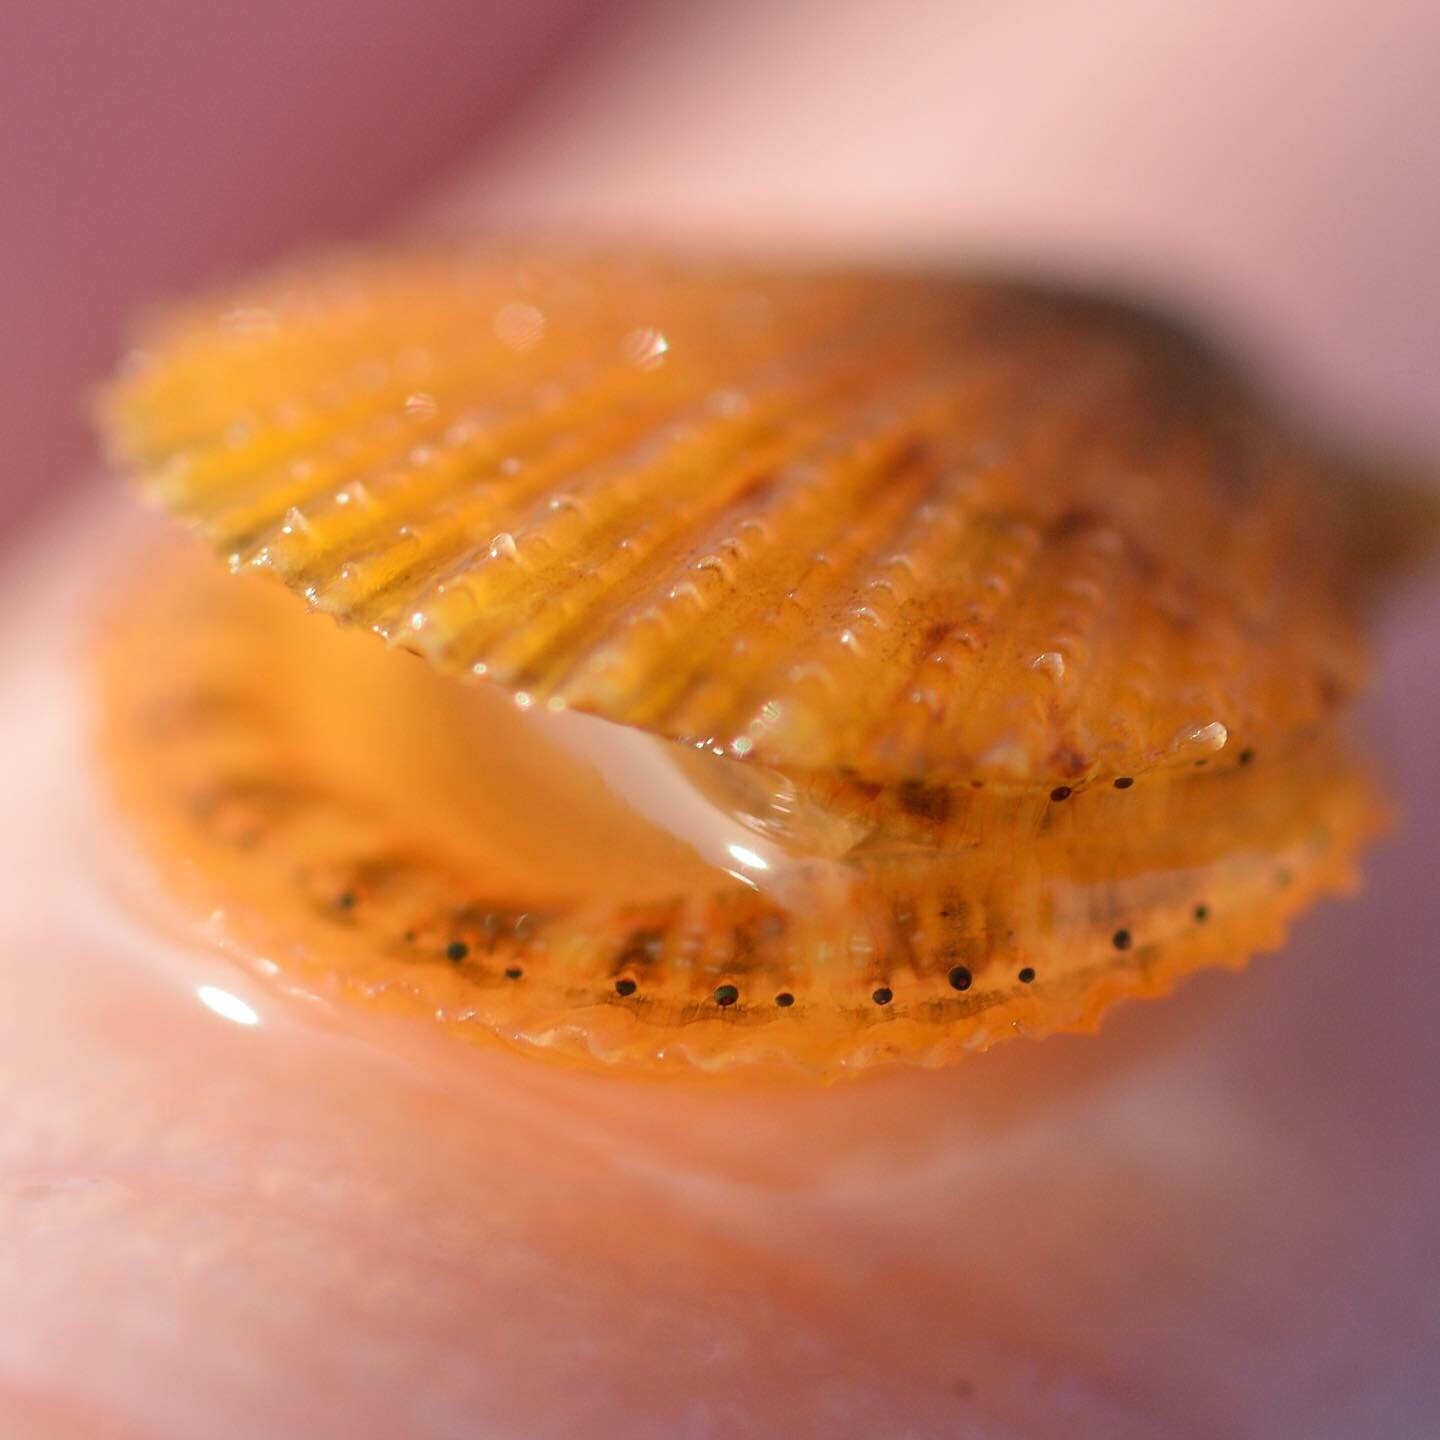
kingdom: Animalia
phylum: Mollusca
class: Bivalvia
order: Pectinida
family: Pectinidae
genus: Crassadoma
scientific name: Crassadoma gigantea
